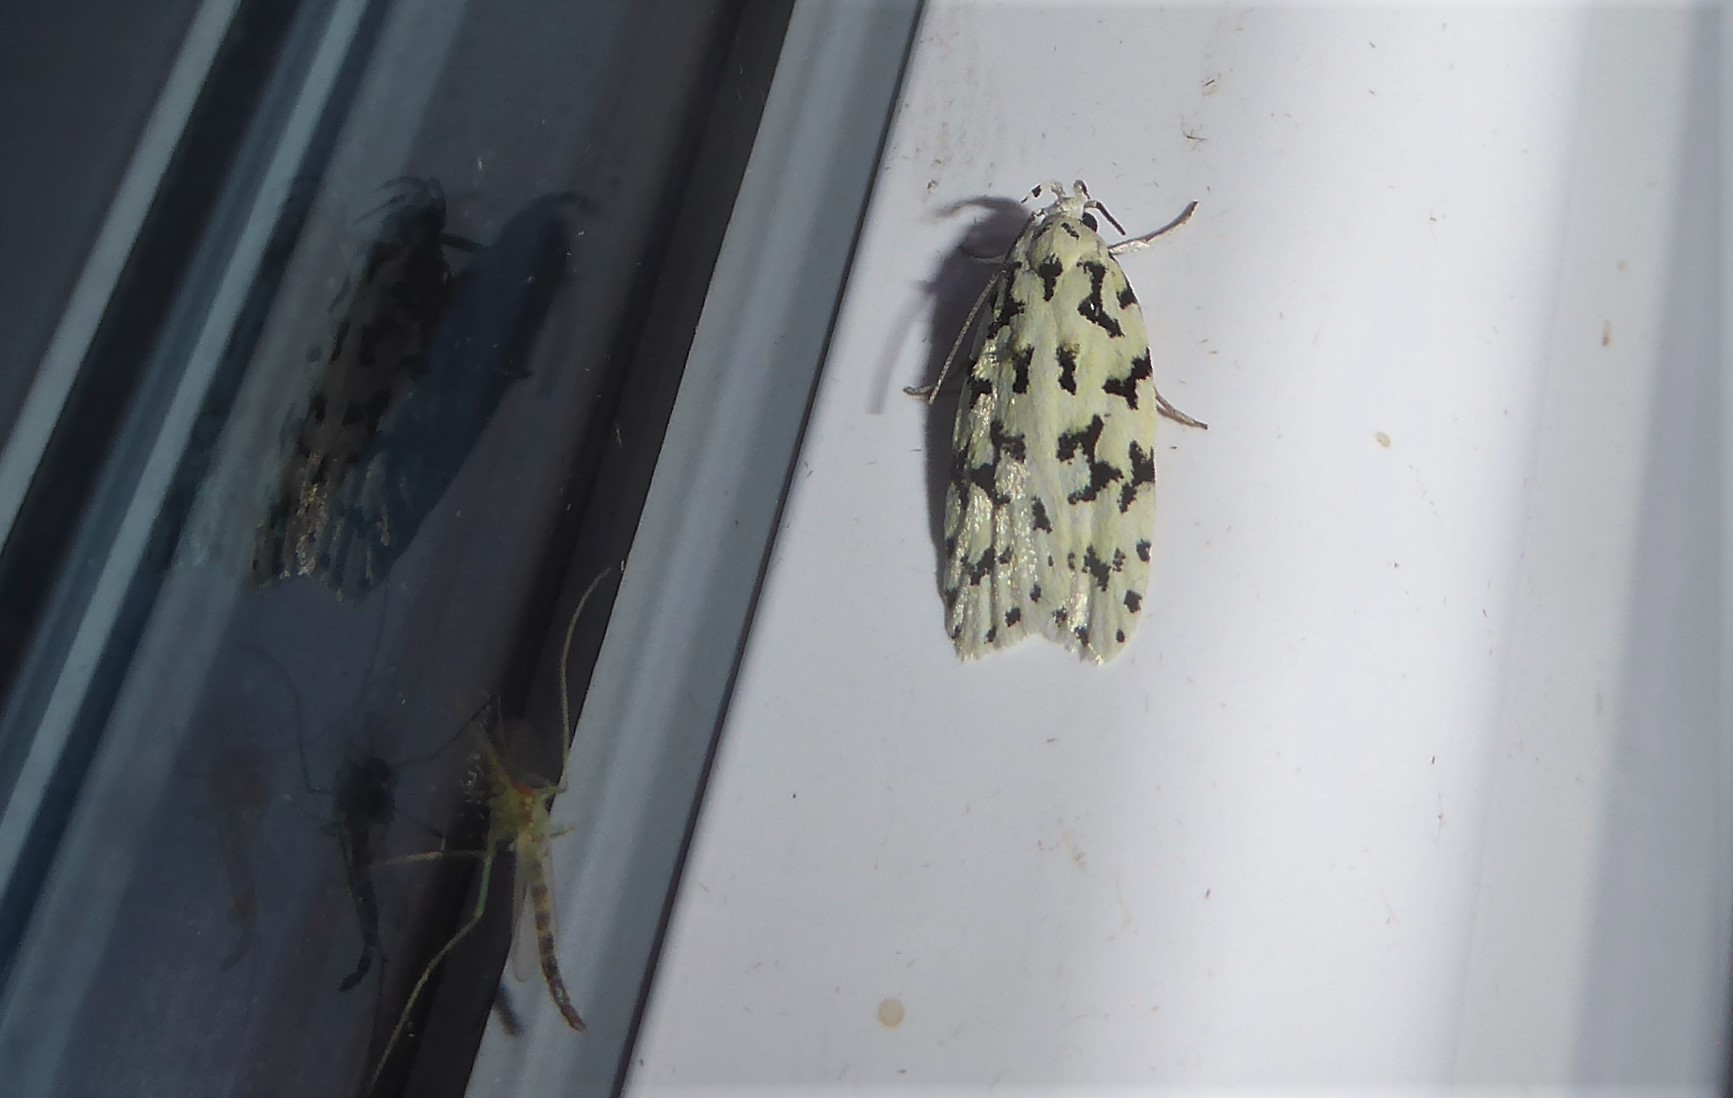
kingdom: Animalia
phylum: Arthropoda
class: Insecta
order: Lepidoptera
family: Oecophoridae
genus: Izatha
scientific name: Izatha huttoni
